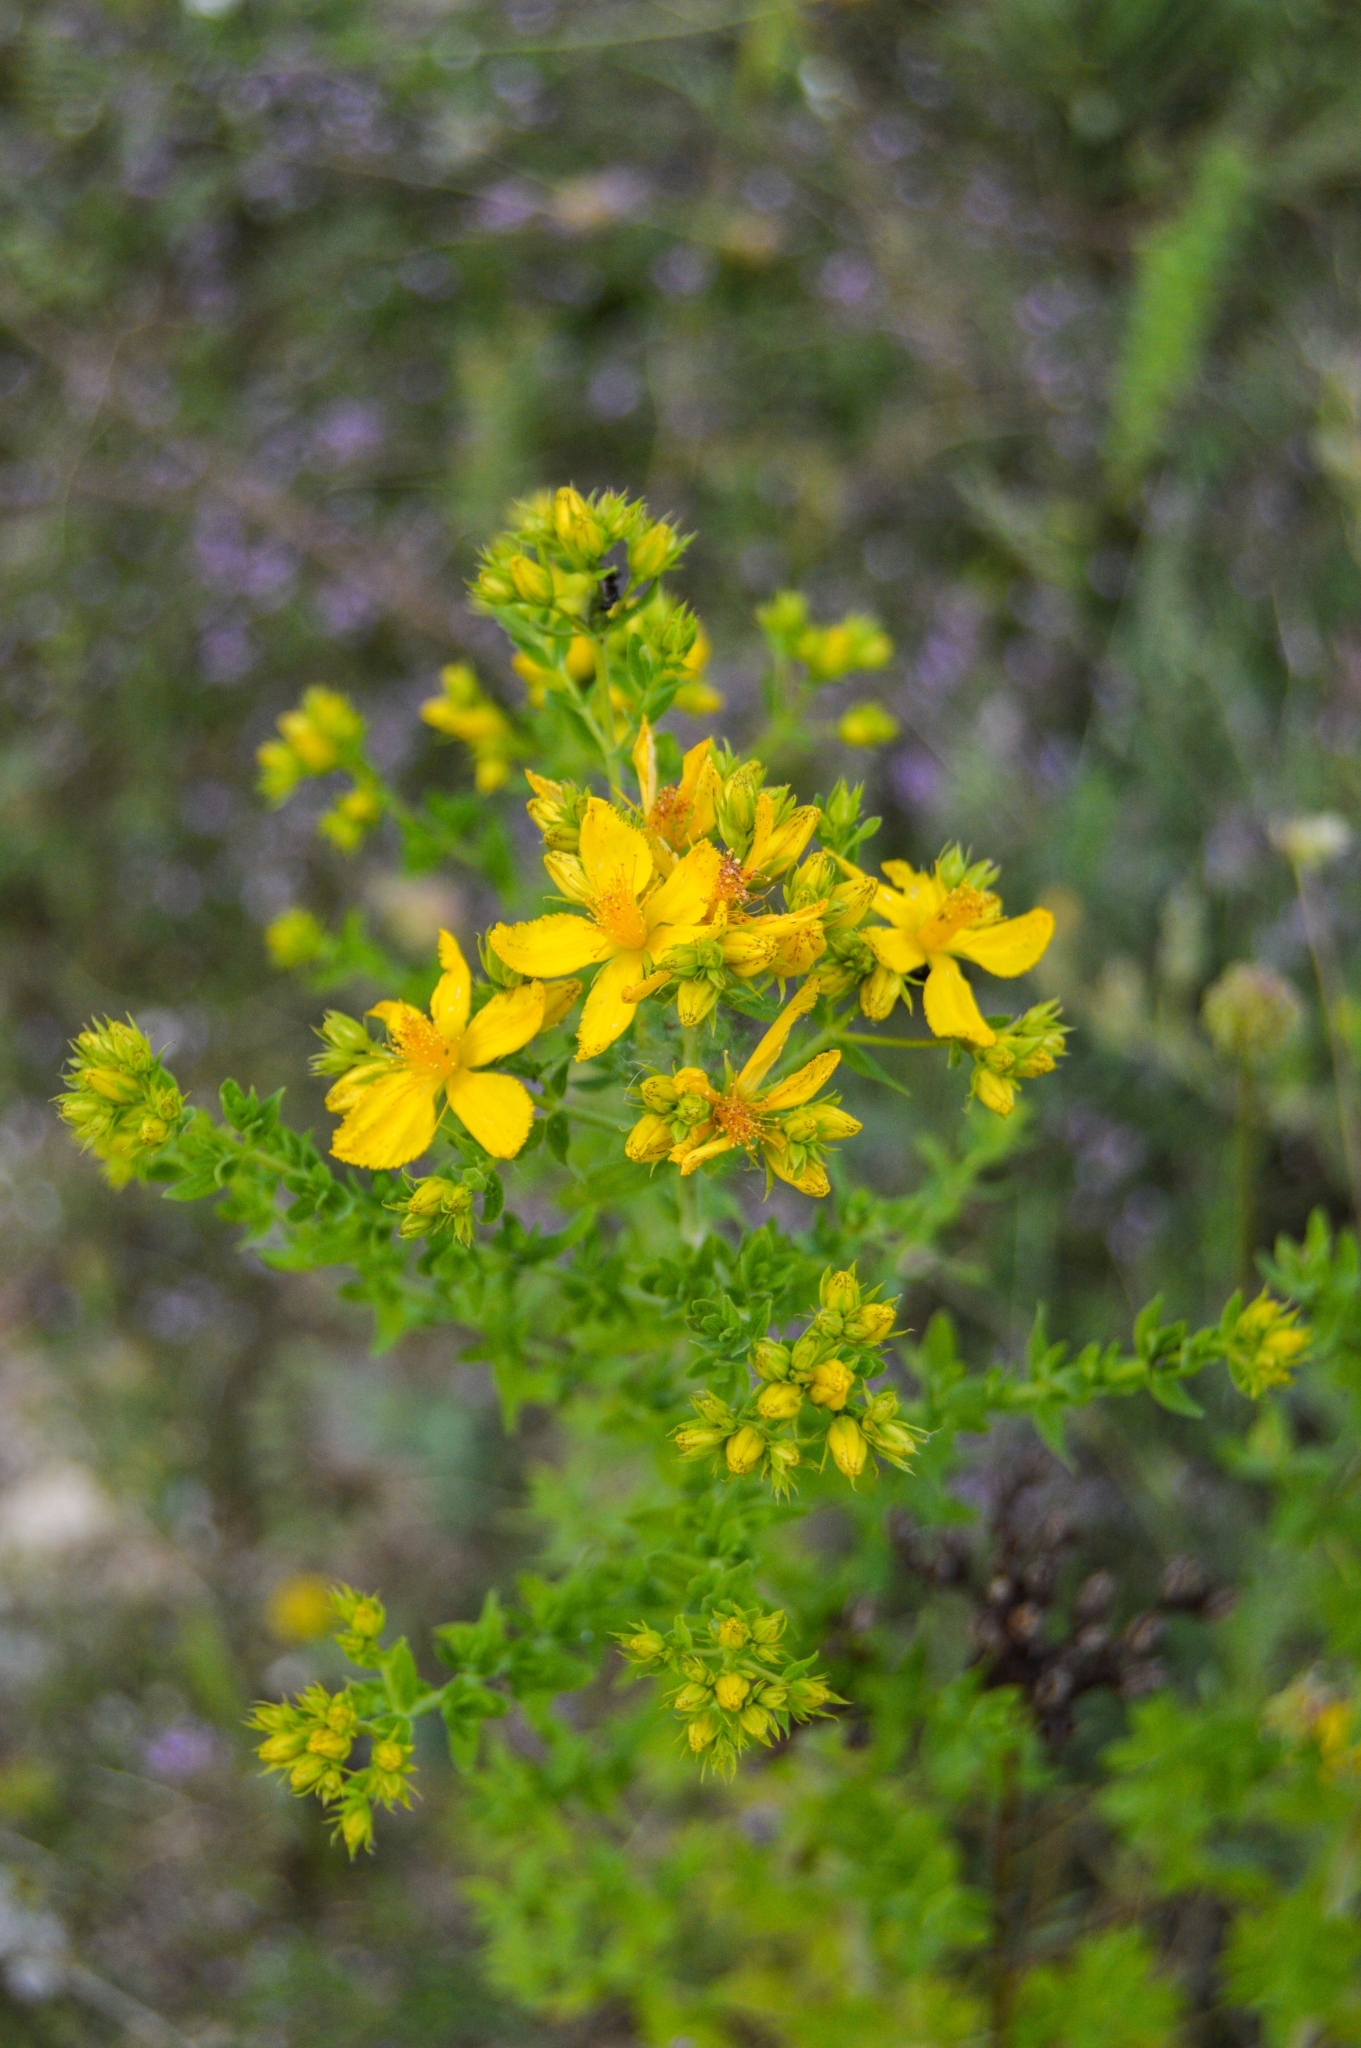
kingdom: Plantae
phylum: Tracheophyta
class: Magnoliopsida
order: Malpighiales
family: Hypericaceae
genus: Hypericum
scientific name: Hypericum perforatum
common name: Common st. johnswort
